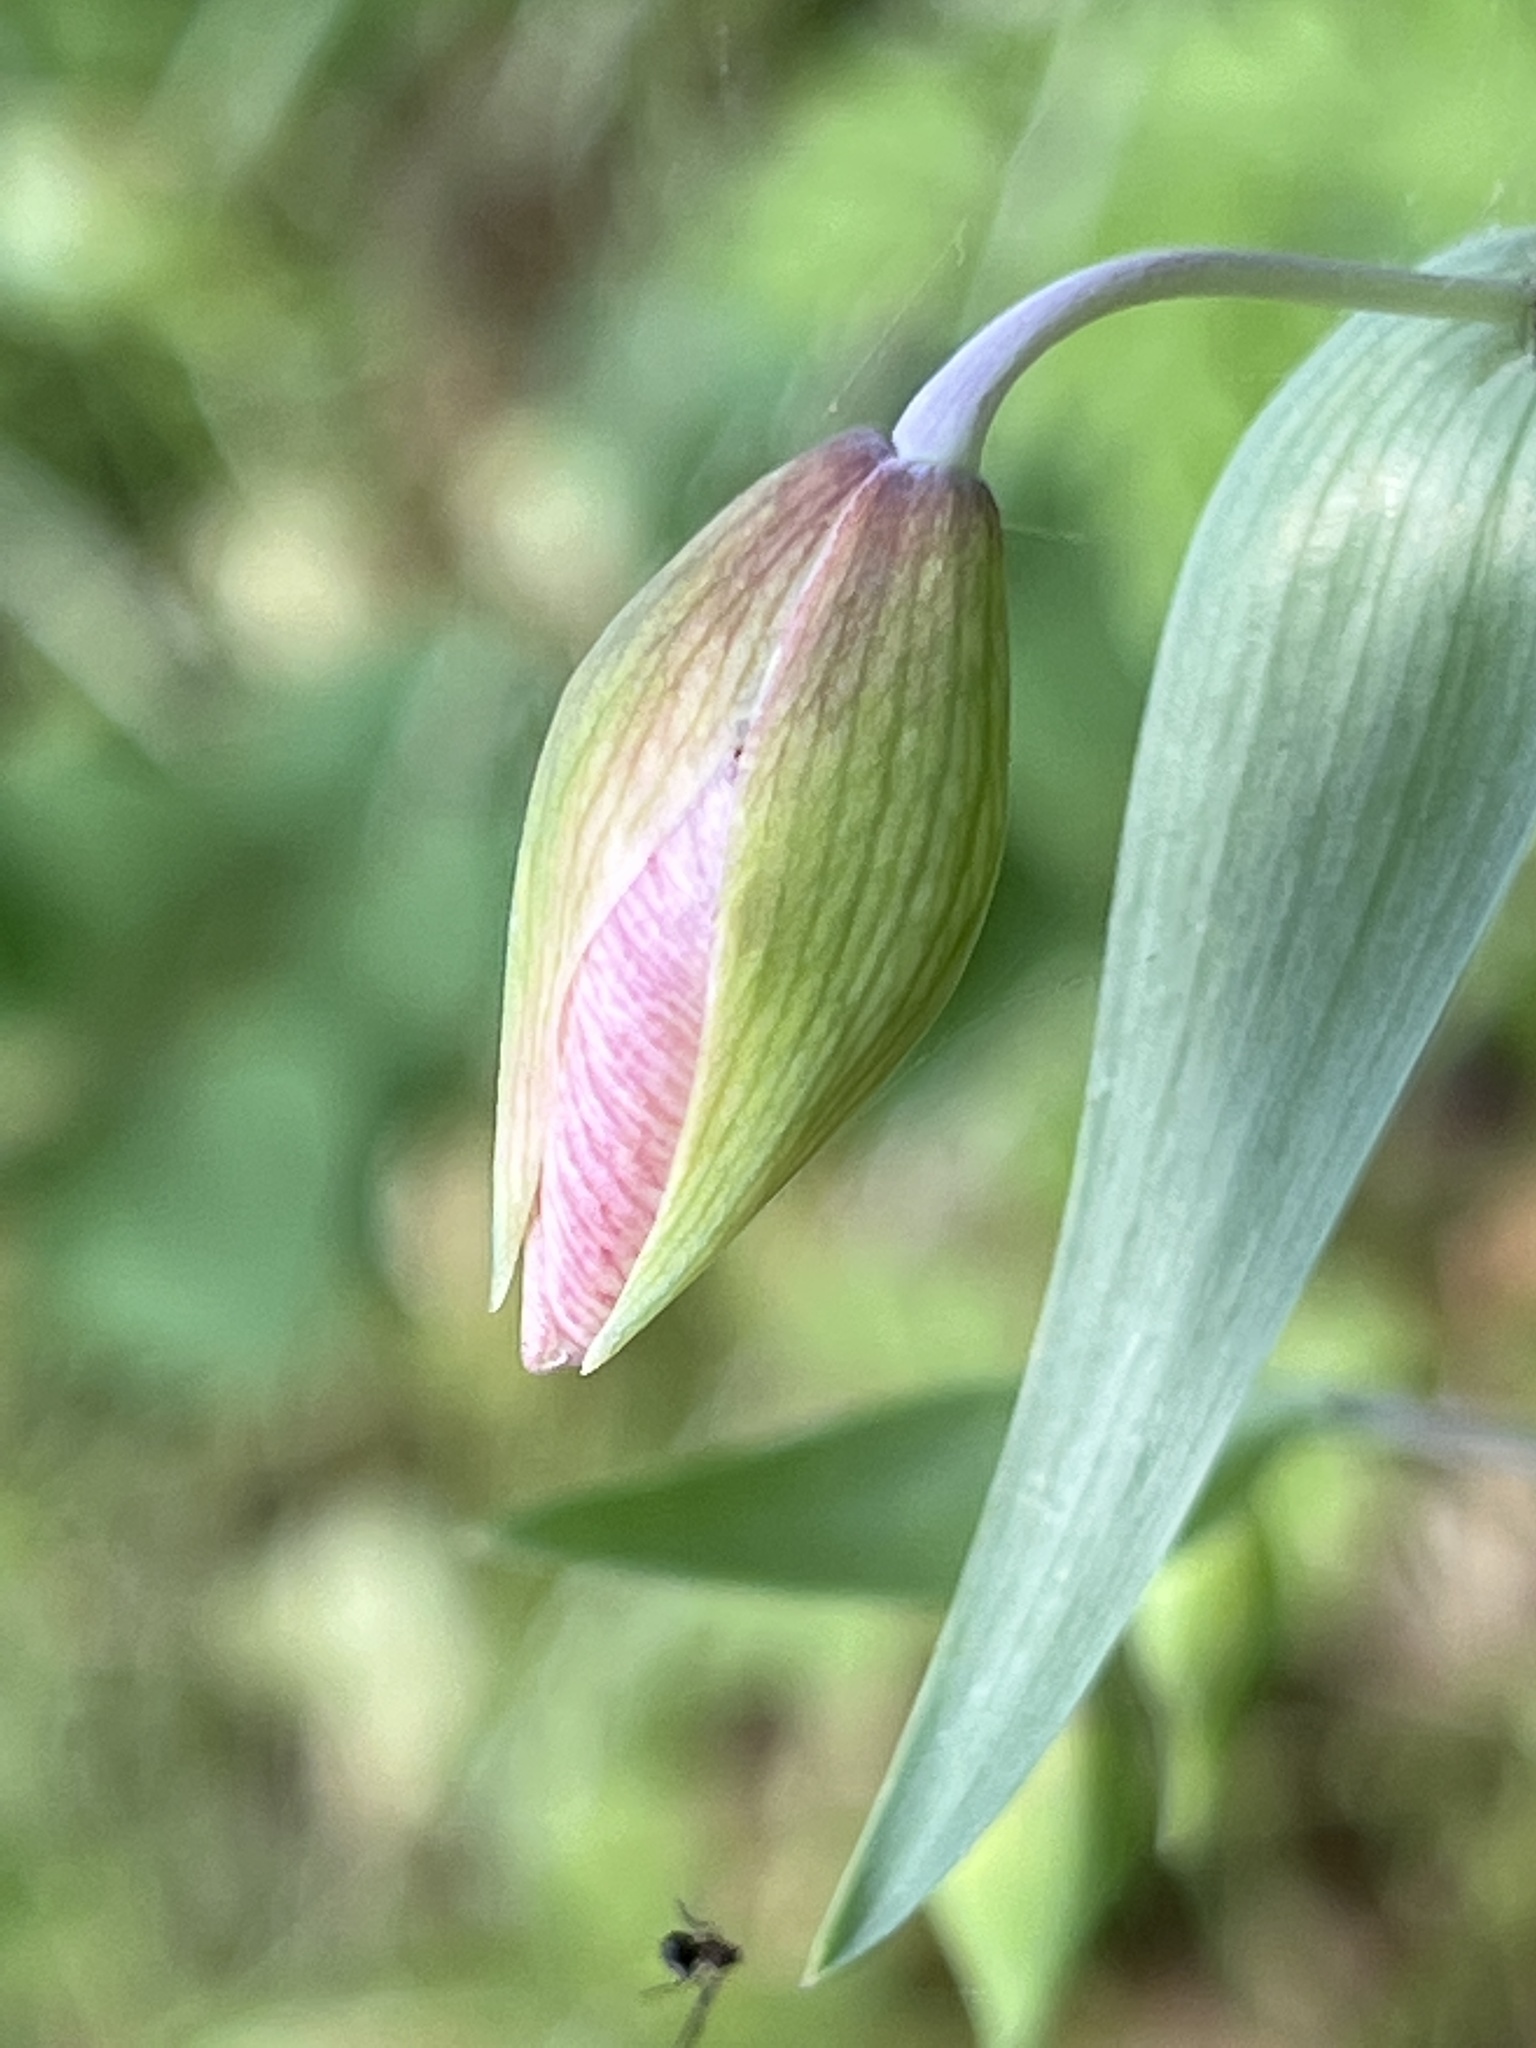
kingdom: Plantae
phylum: Tracheophyta
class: Liliopsida
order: Liliales
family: Liliaceae
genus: Calochortus
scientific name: Calochortus albus
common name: Fairy-lantern
